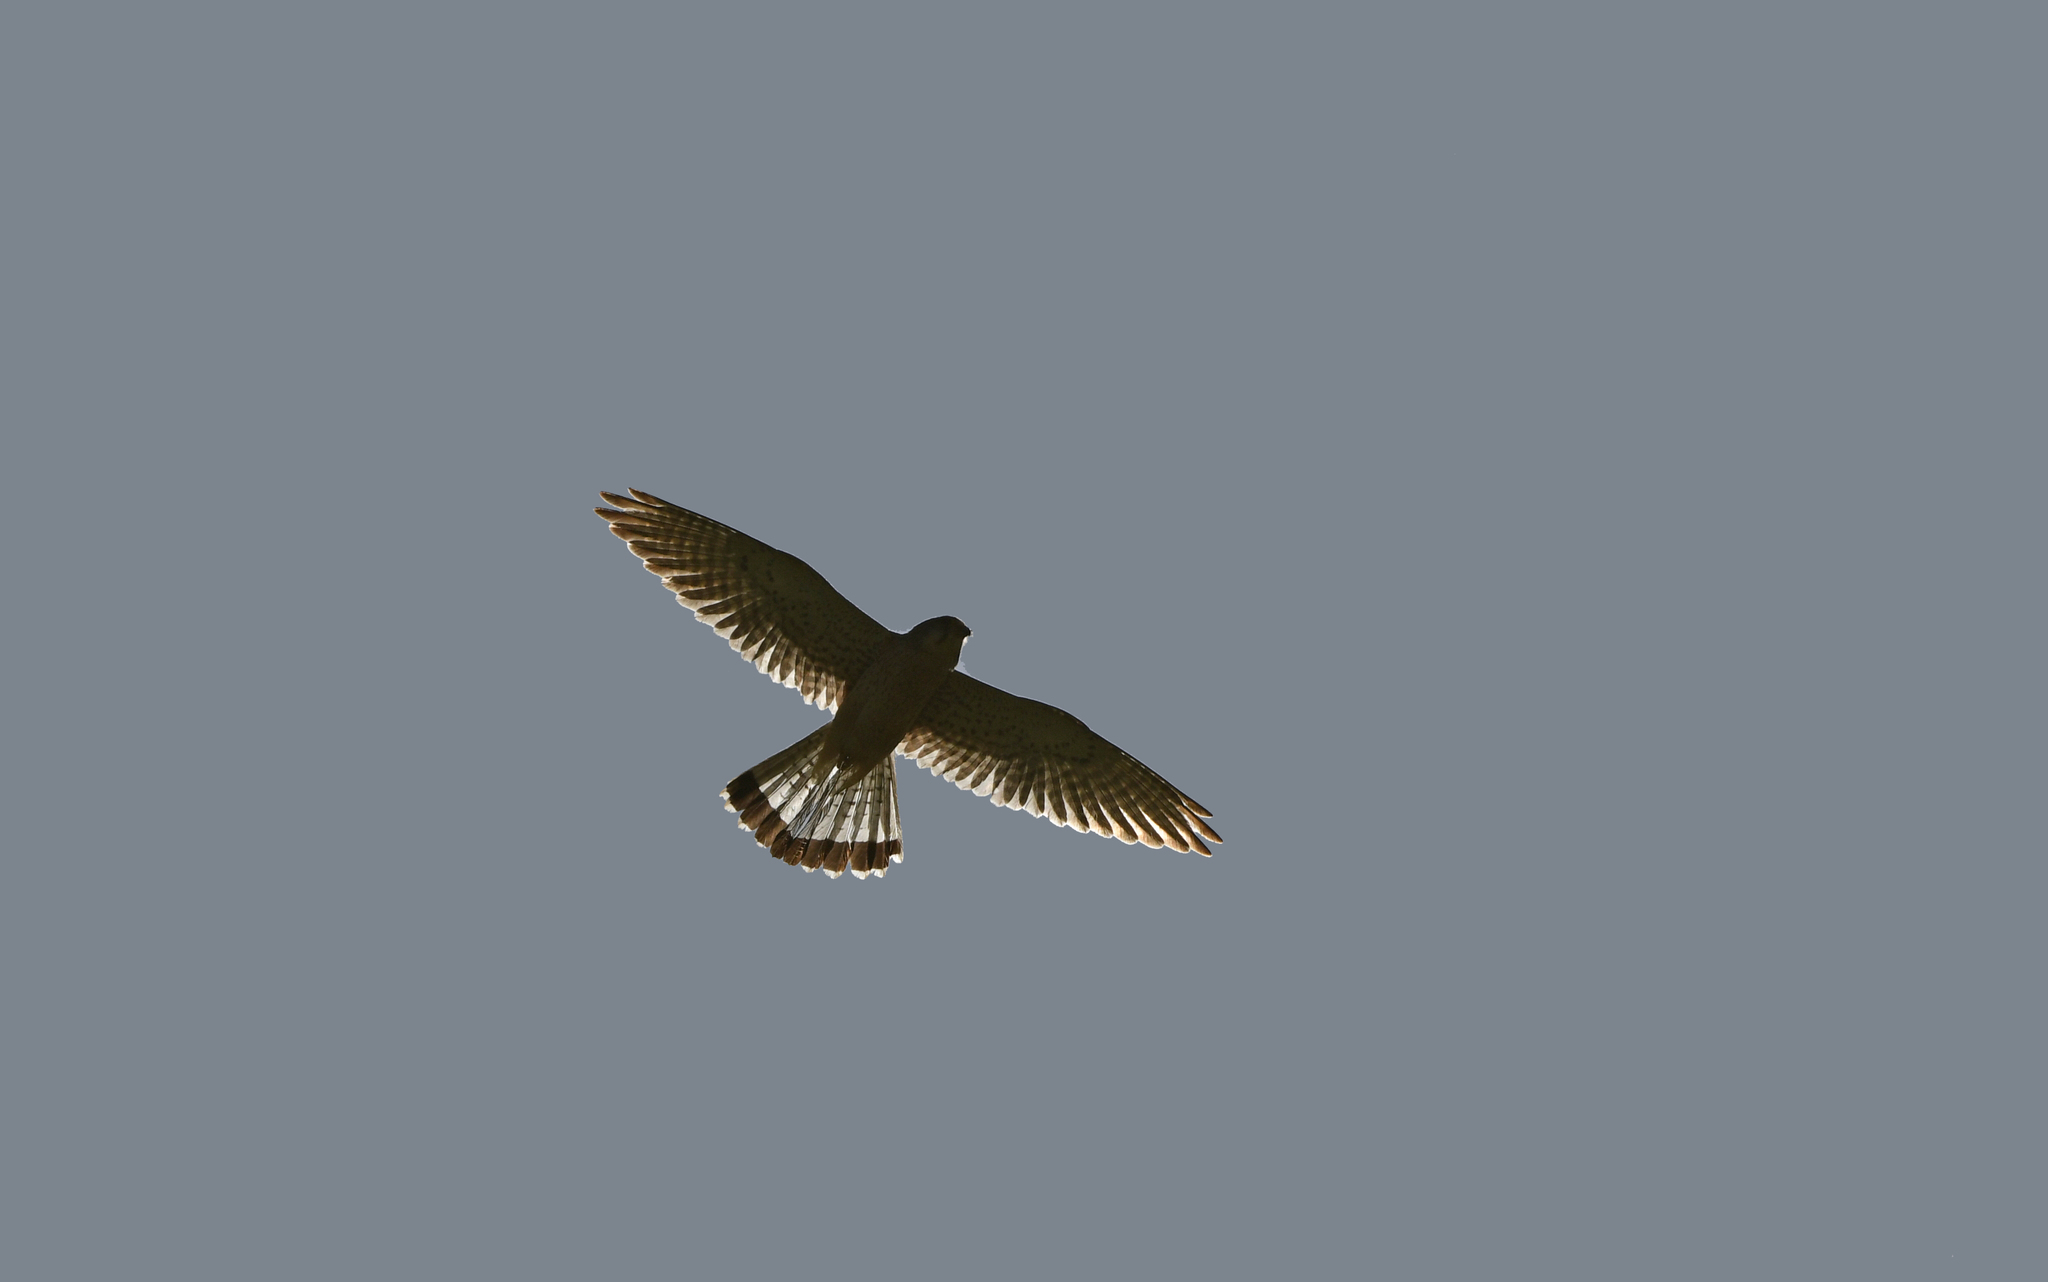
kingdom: Animalia
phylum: Chordata
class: Aves
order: Falconiformes
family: Falconidae
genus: Falco
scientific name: Falco tinnunculus
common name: Common kestrel
